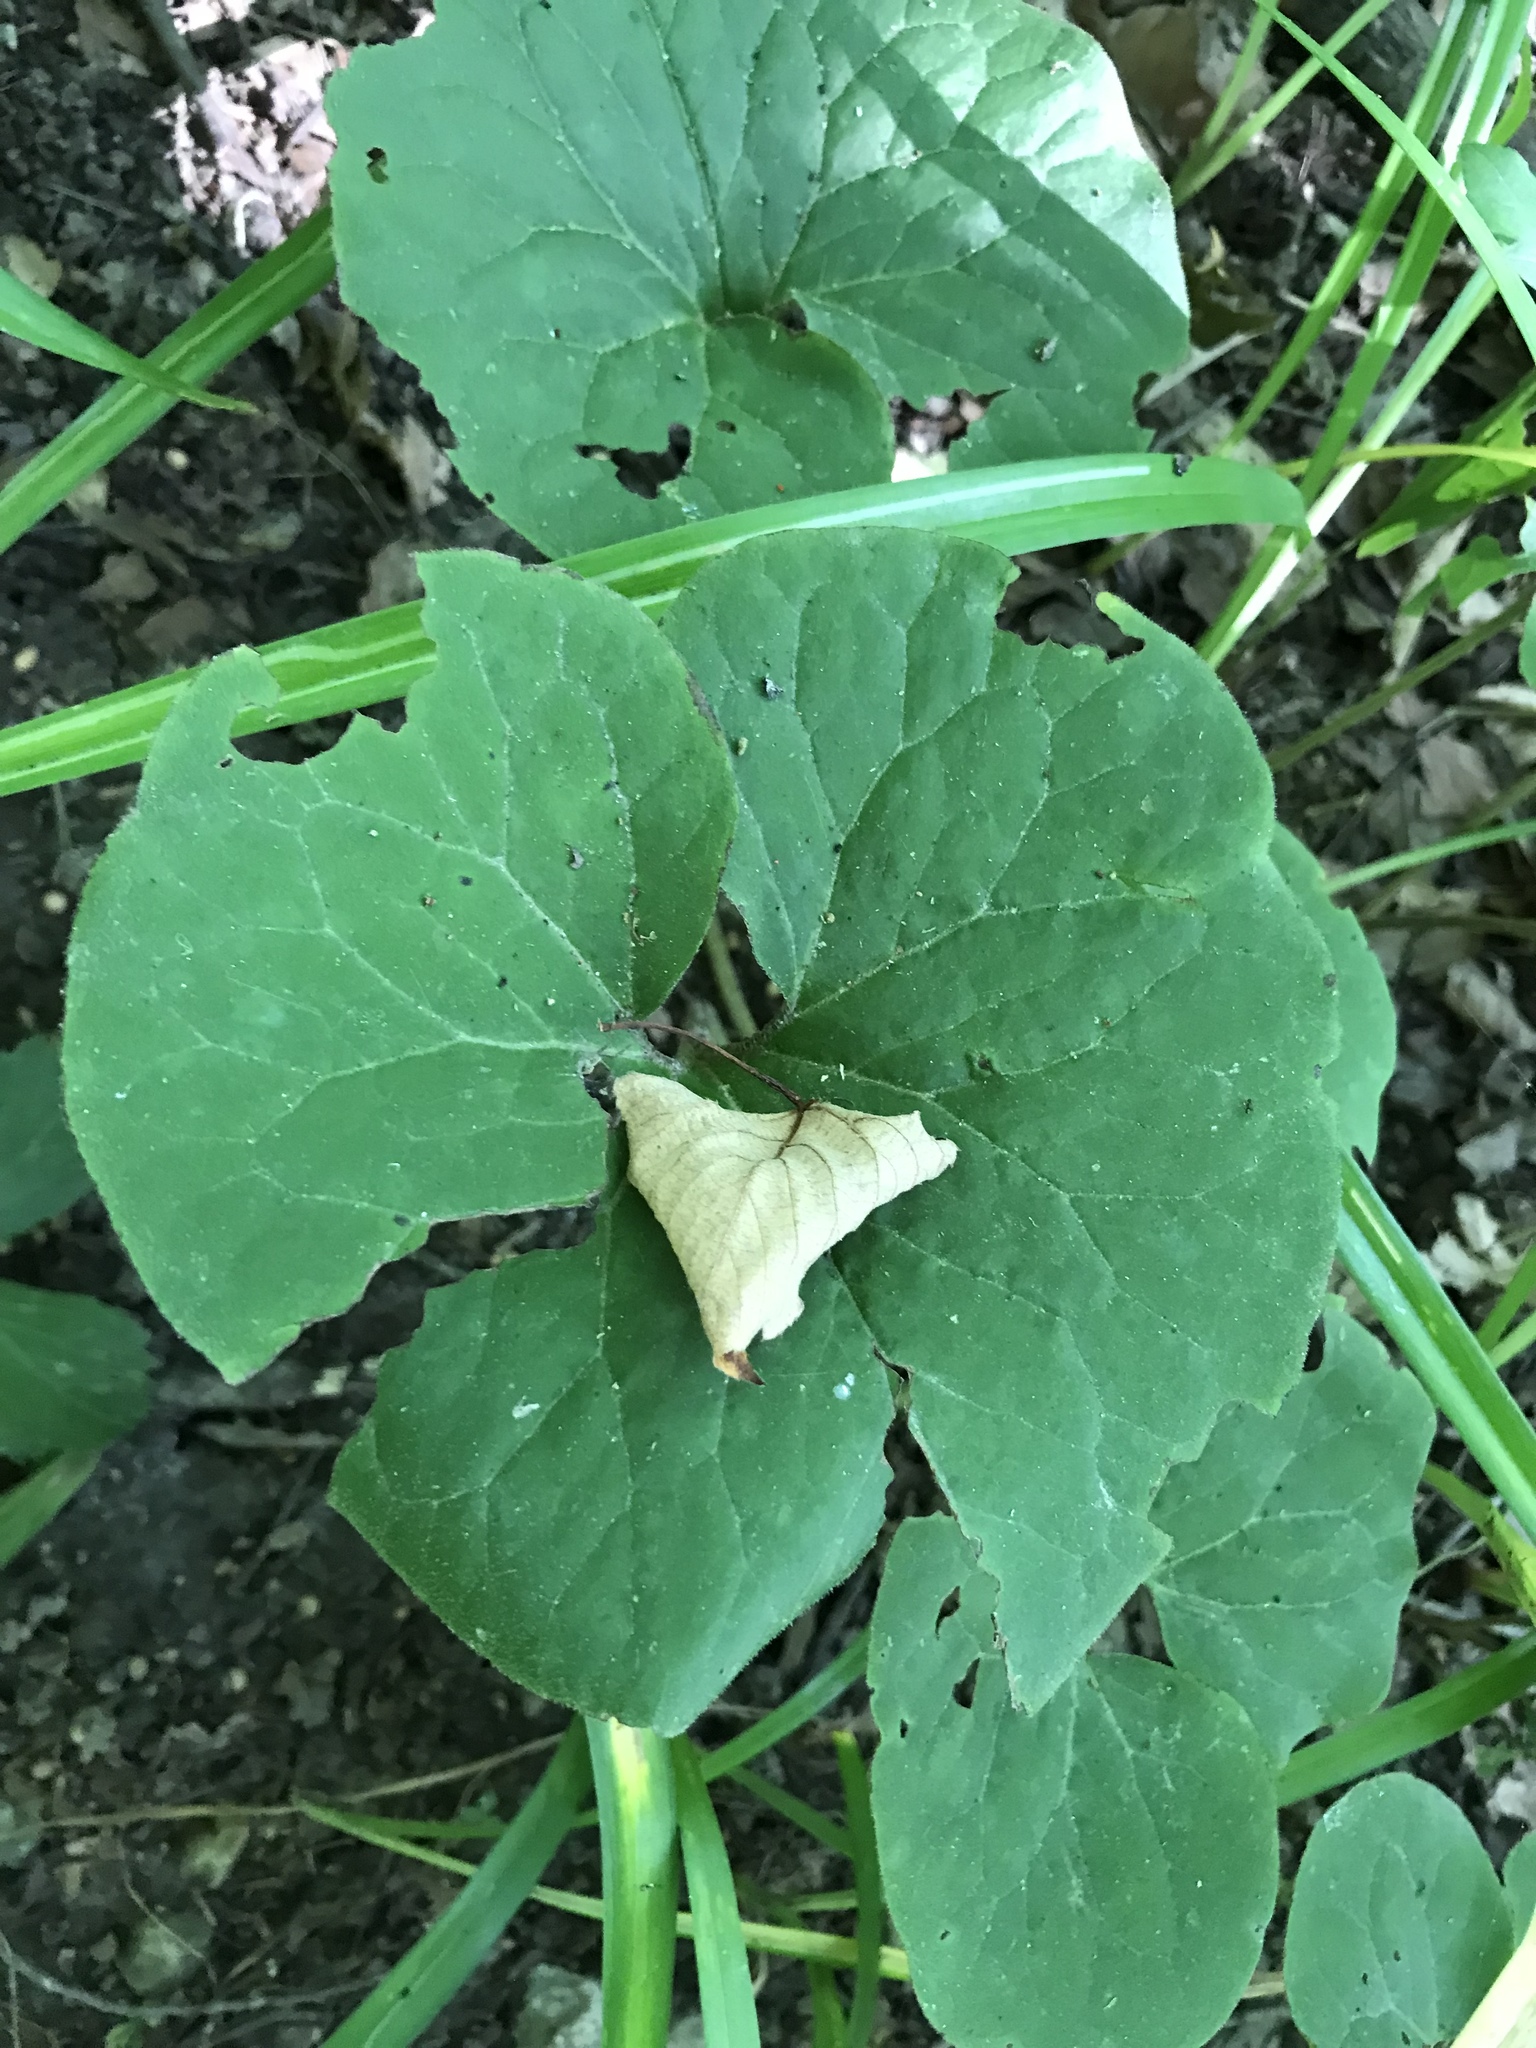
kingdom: Plantae
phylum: Tracheophyta
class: Magnoliopsida
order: Piperales
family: Aristolochiaceae
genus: Asarum
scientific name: Asarum canadense
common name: Wild ginger
